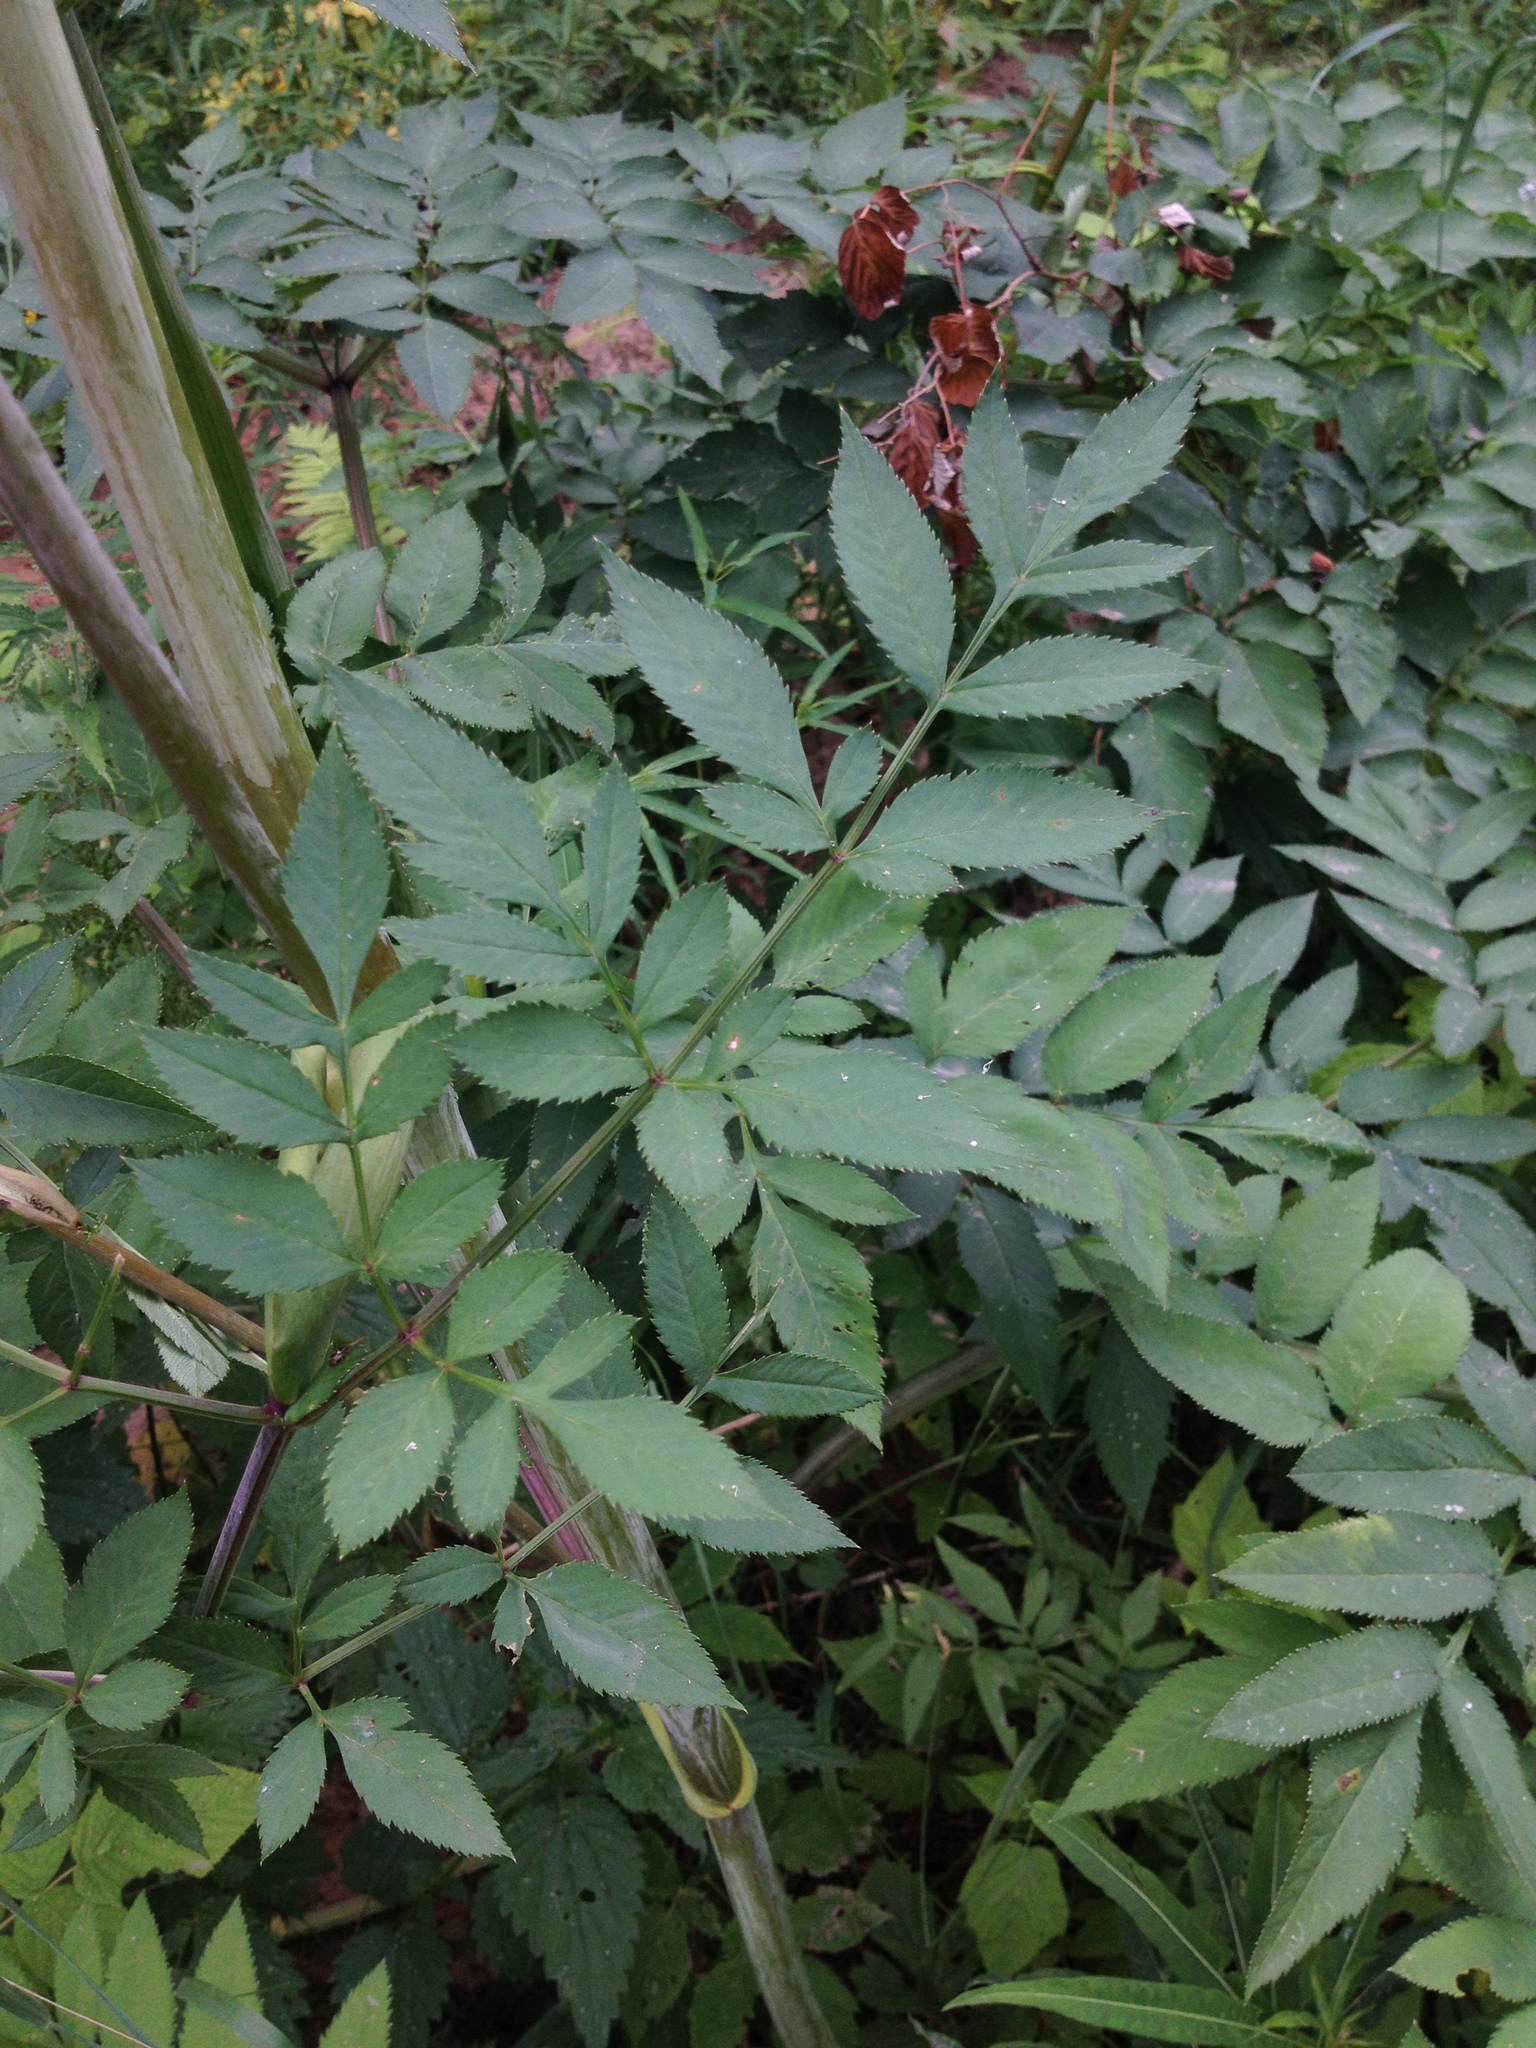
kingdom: Plantae
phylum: Tracheophyta
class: Magnoliopsida
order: Apiales
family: Apiaceae
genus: Angelica
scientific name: Angelica sylvestris
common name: Wild angelica
